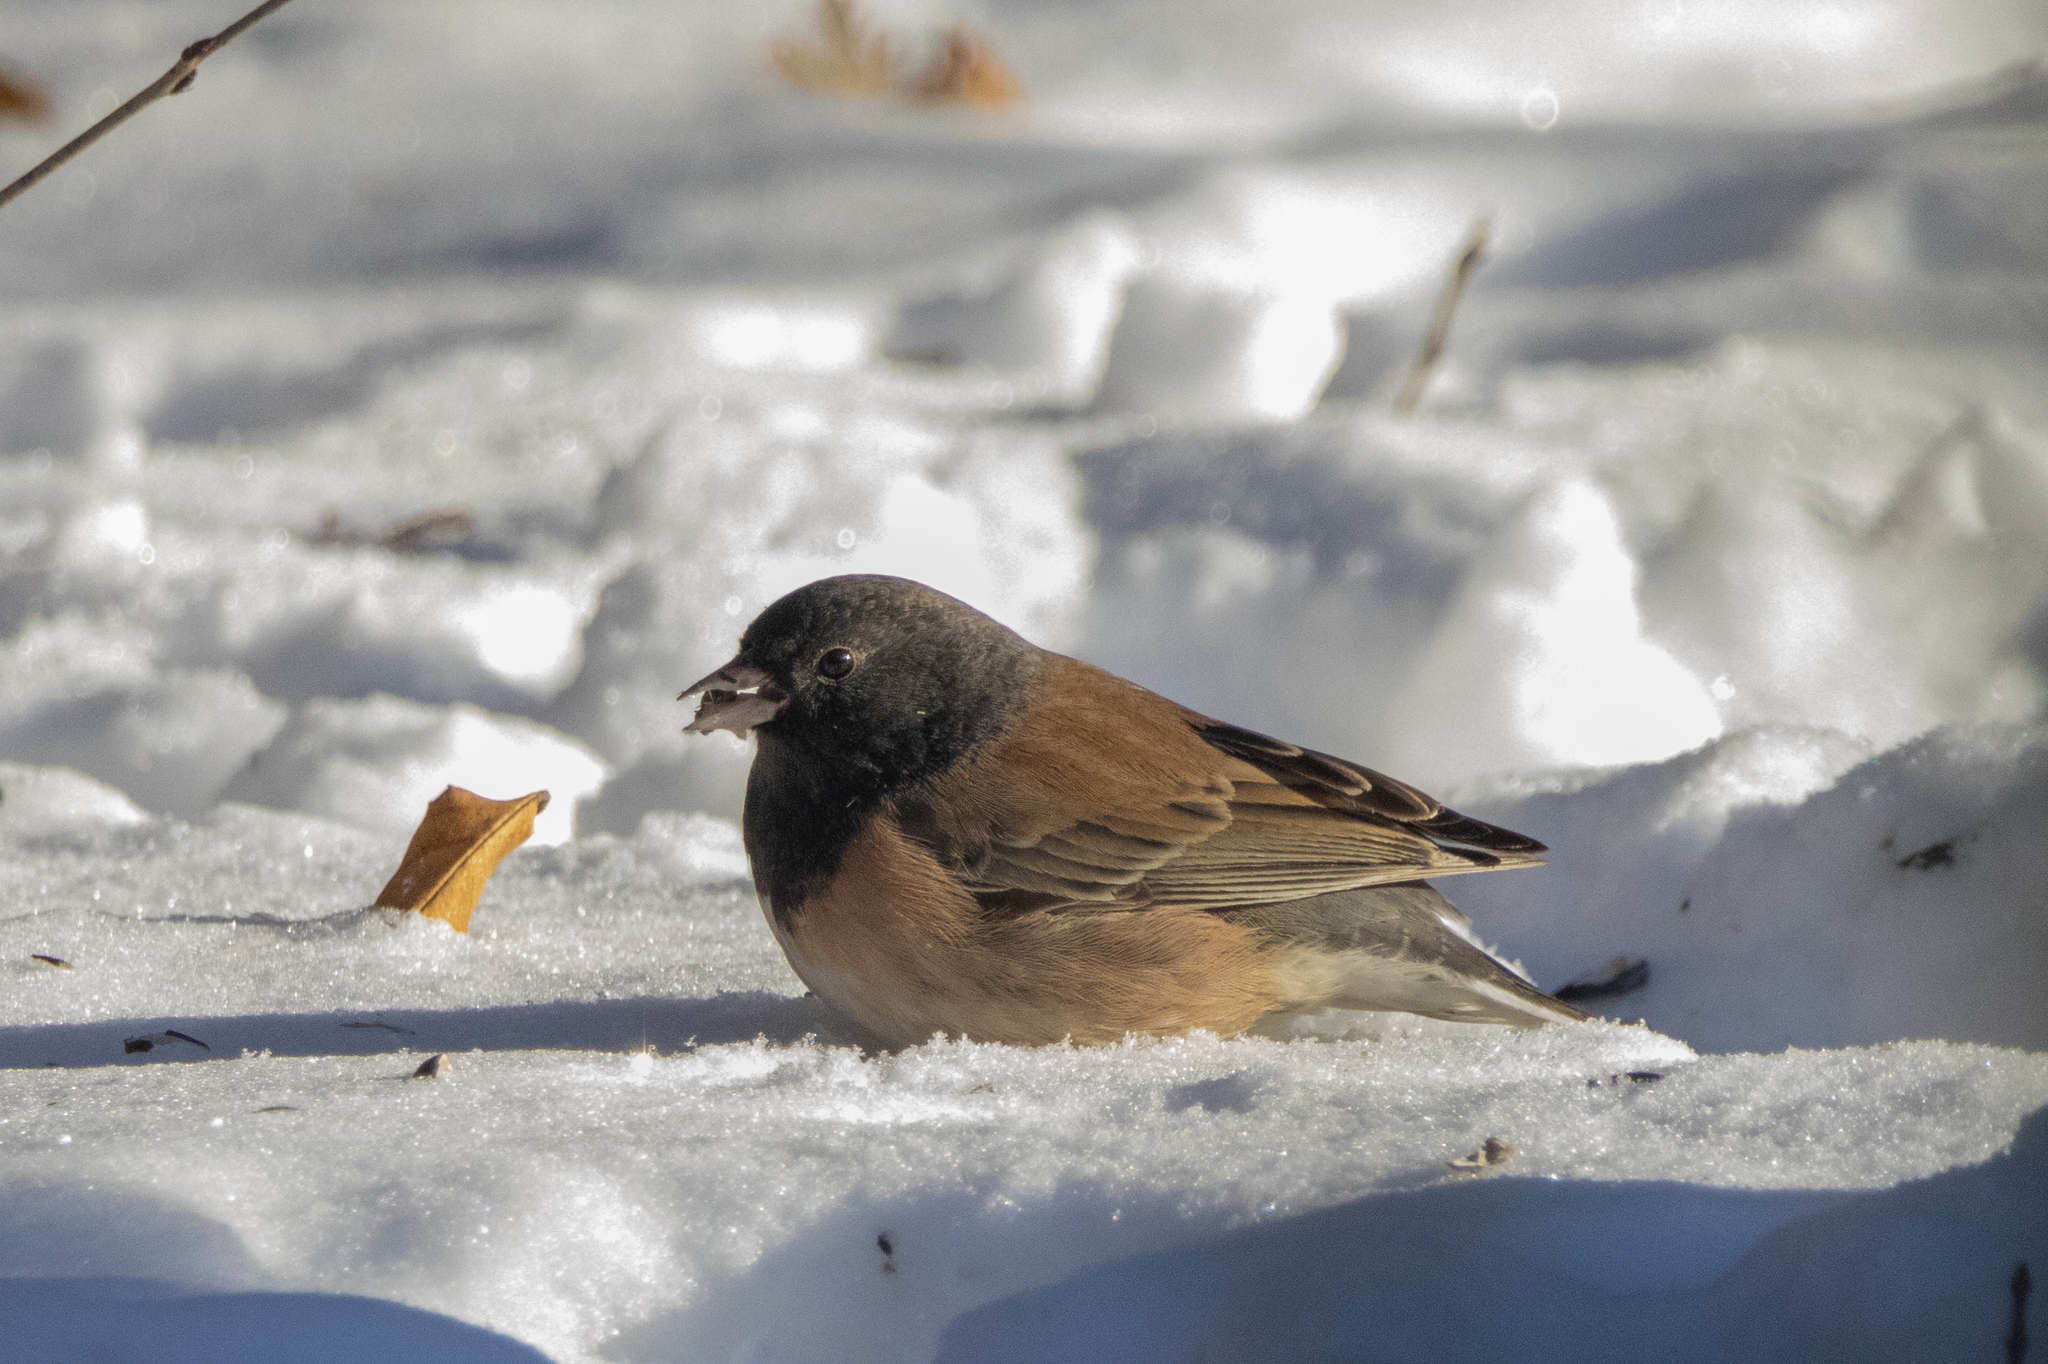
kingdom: Animalia
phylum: Chordata
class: Aves
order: Passeriformes
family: Passerellidae
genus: Junco
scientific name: Junco hyemalis
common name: Dark-eyed junco
